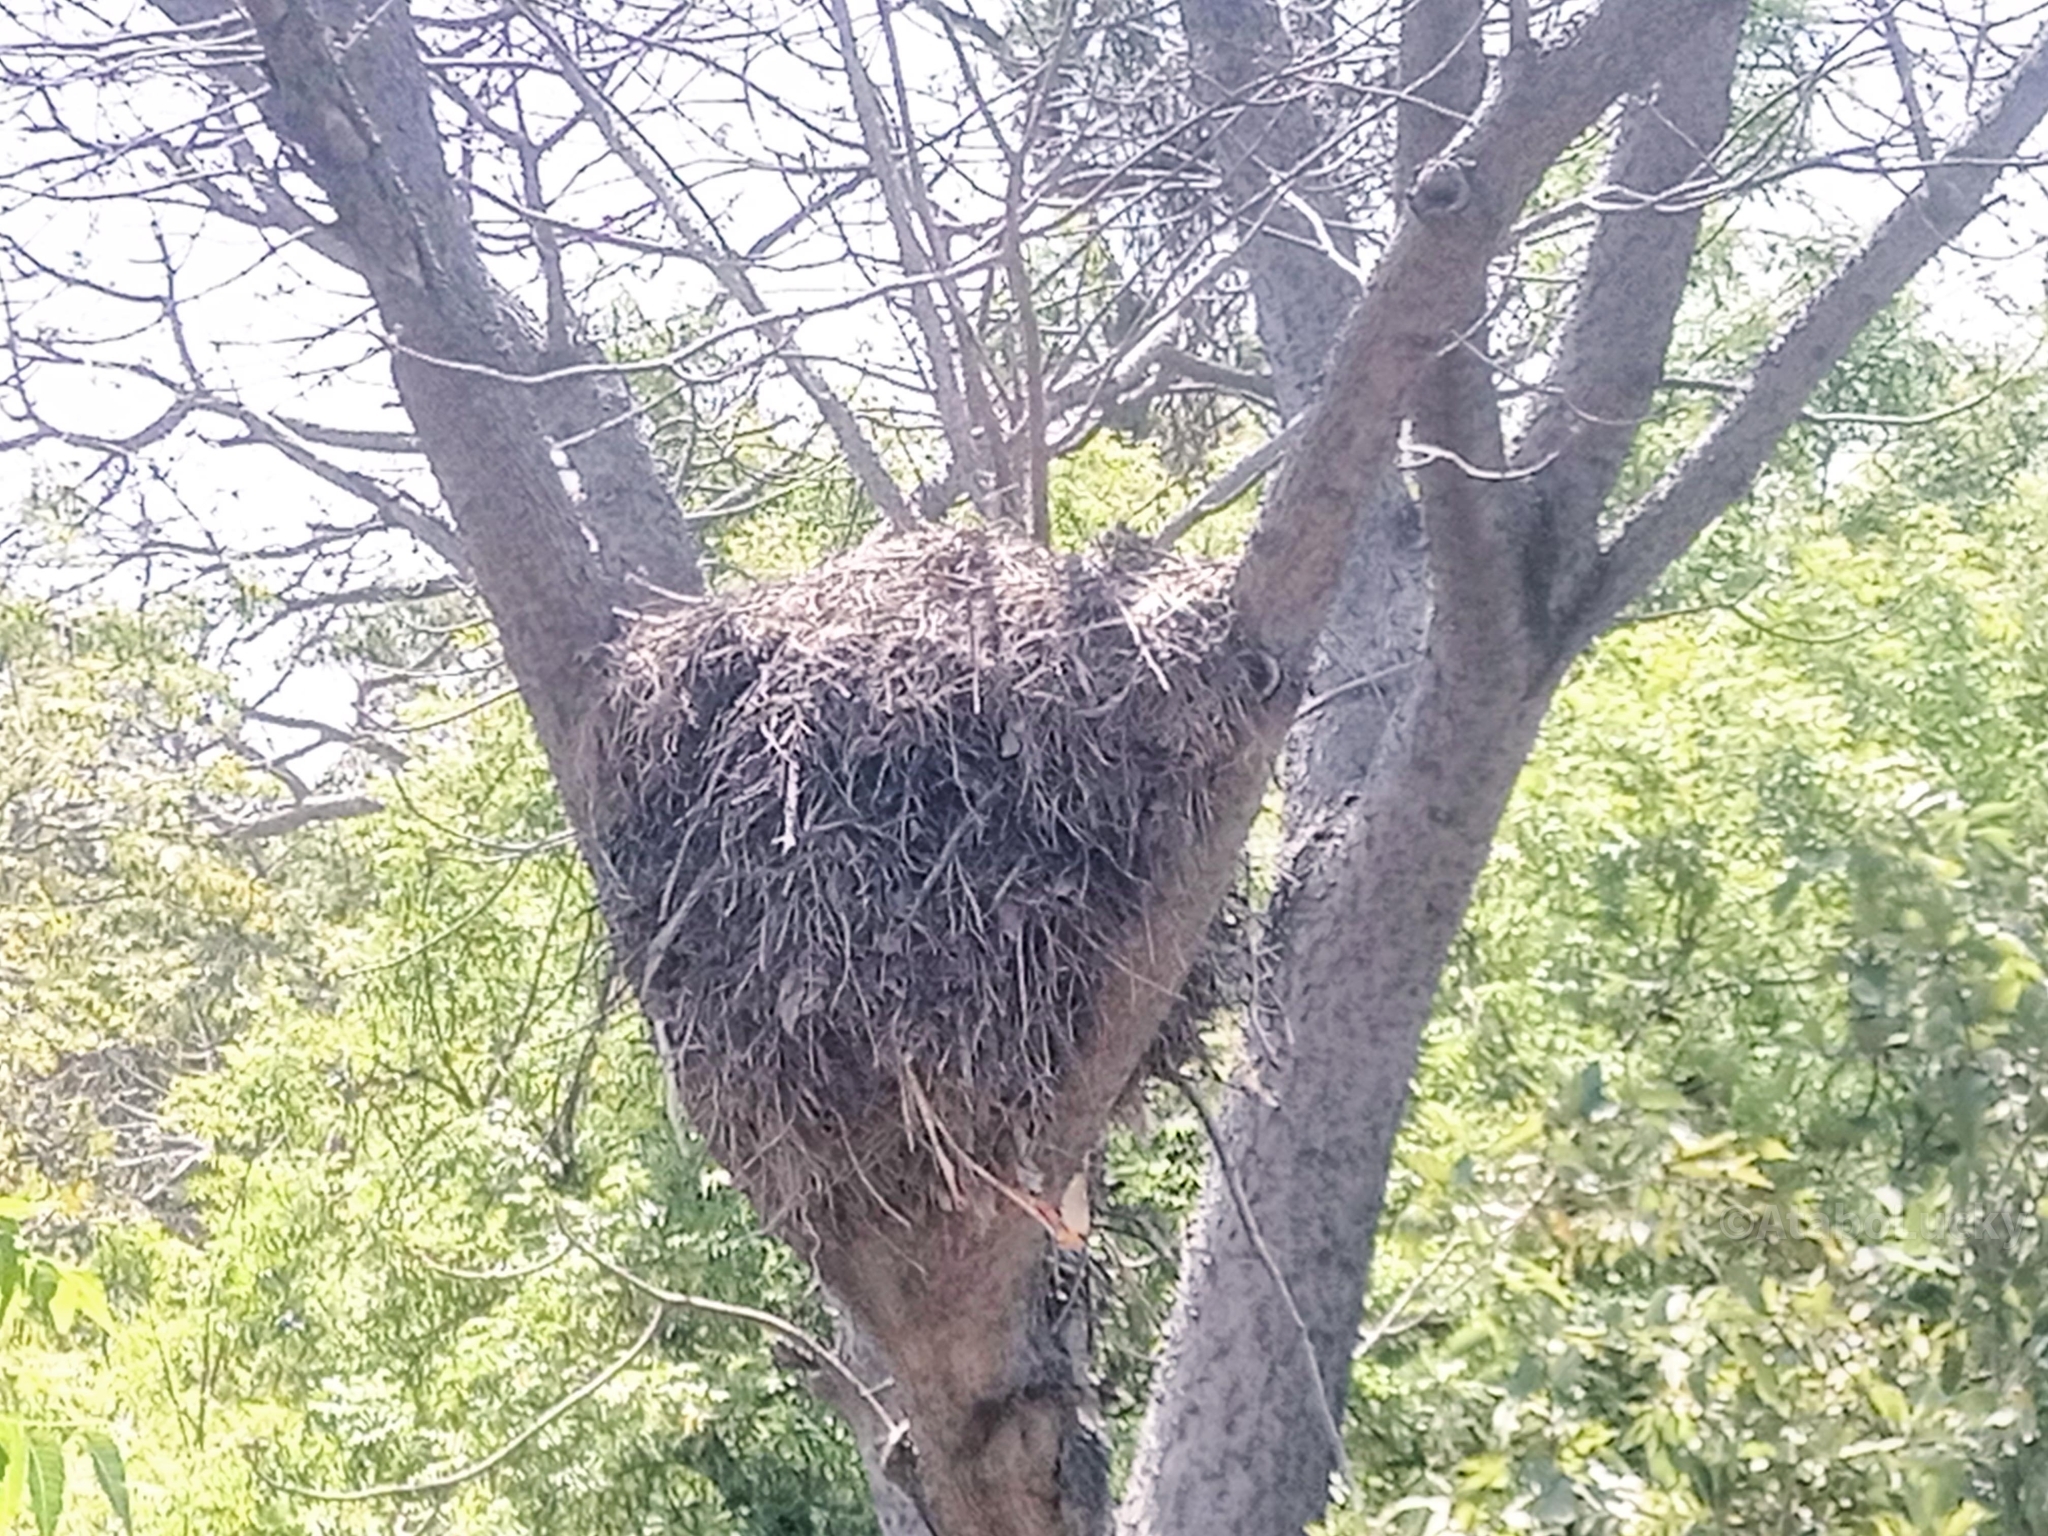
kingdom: Animalia
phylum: Chordata
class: Aves
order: Pelecaniformes
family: Scopidae
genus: Scopus
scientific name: Scopus umbretta
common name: Hamerkop
